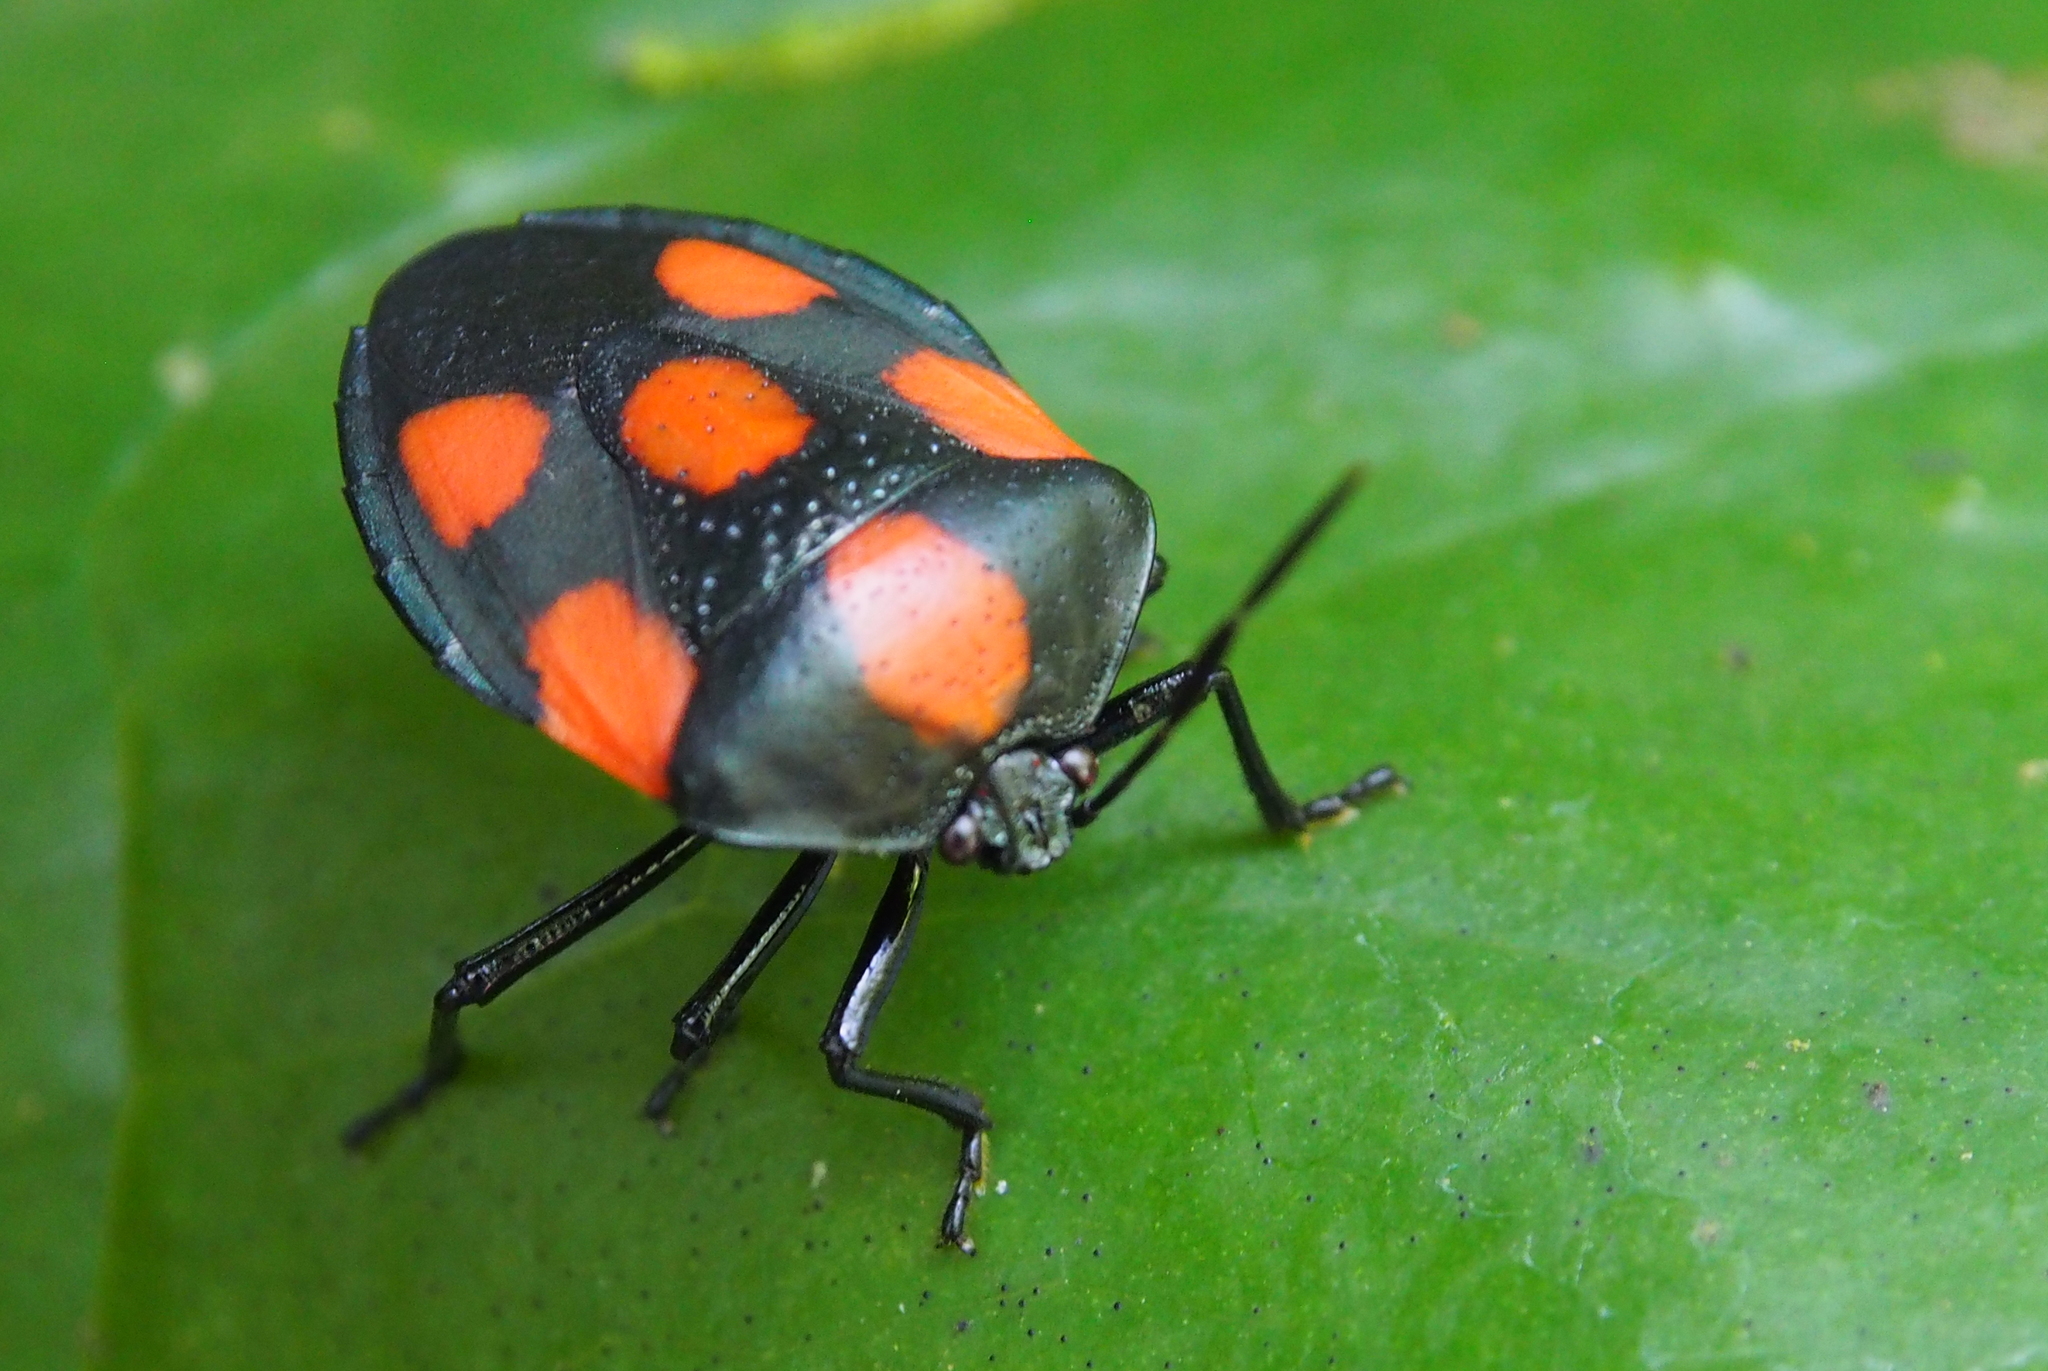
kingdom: Animalia
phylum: Arthropoda
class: Insecta
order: Hemiptera
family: Pentatomidae
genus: Brachystethus
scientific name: Brachystethus rubromaculatus
